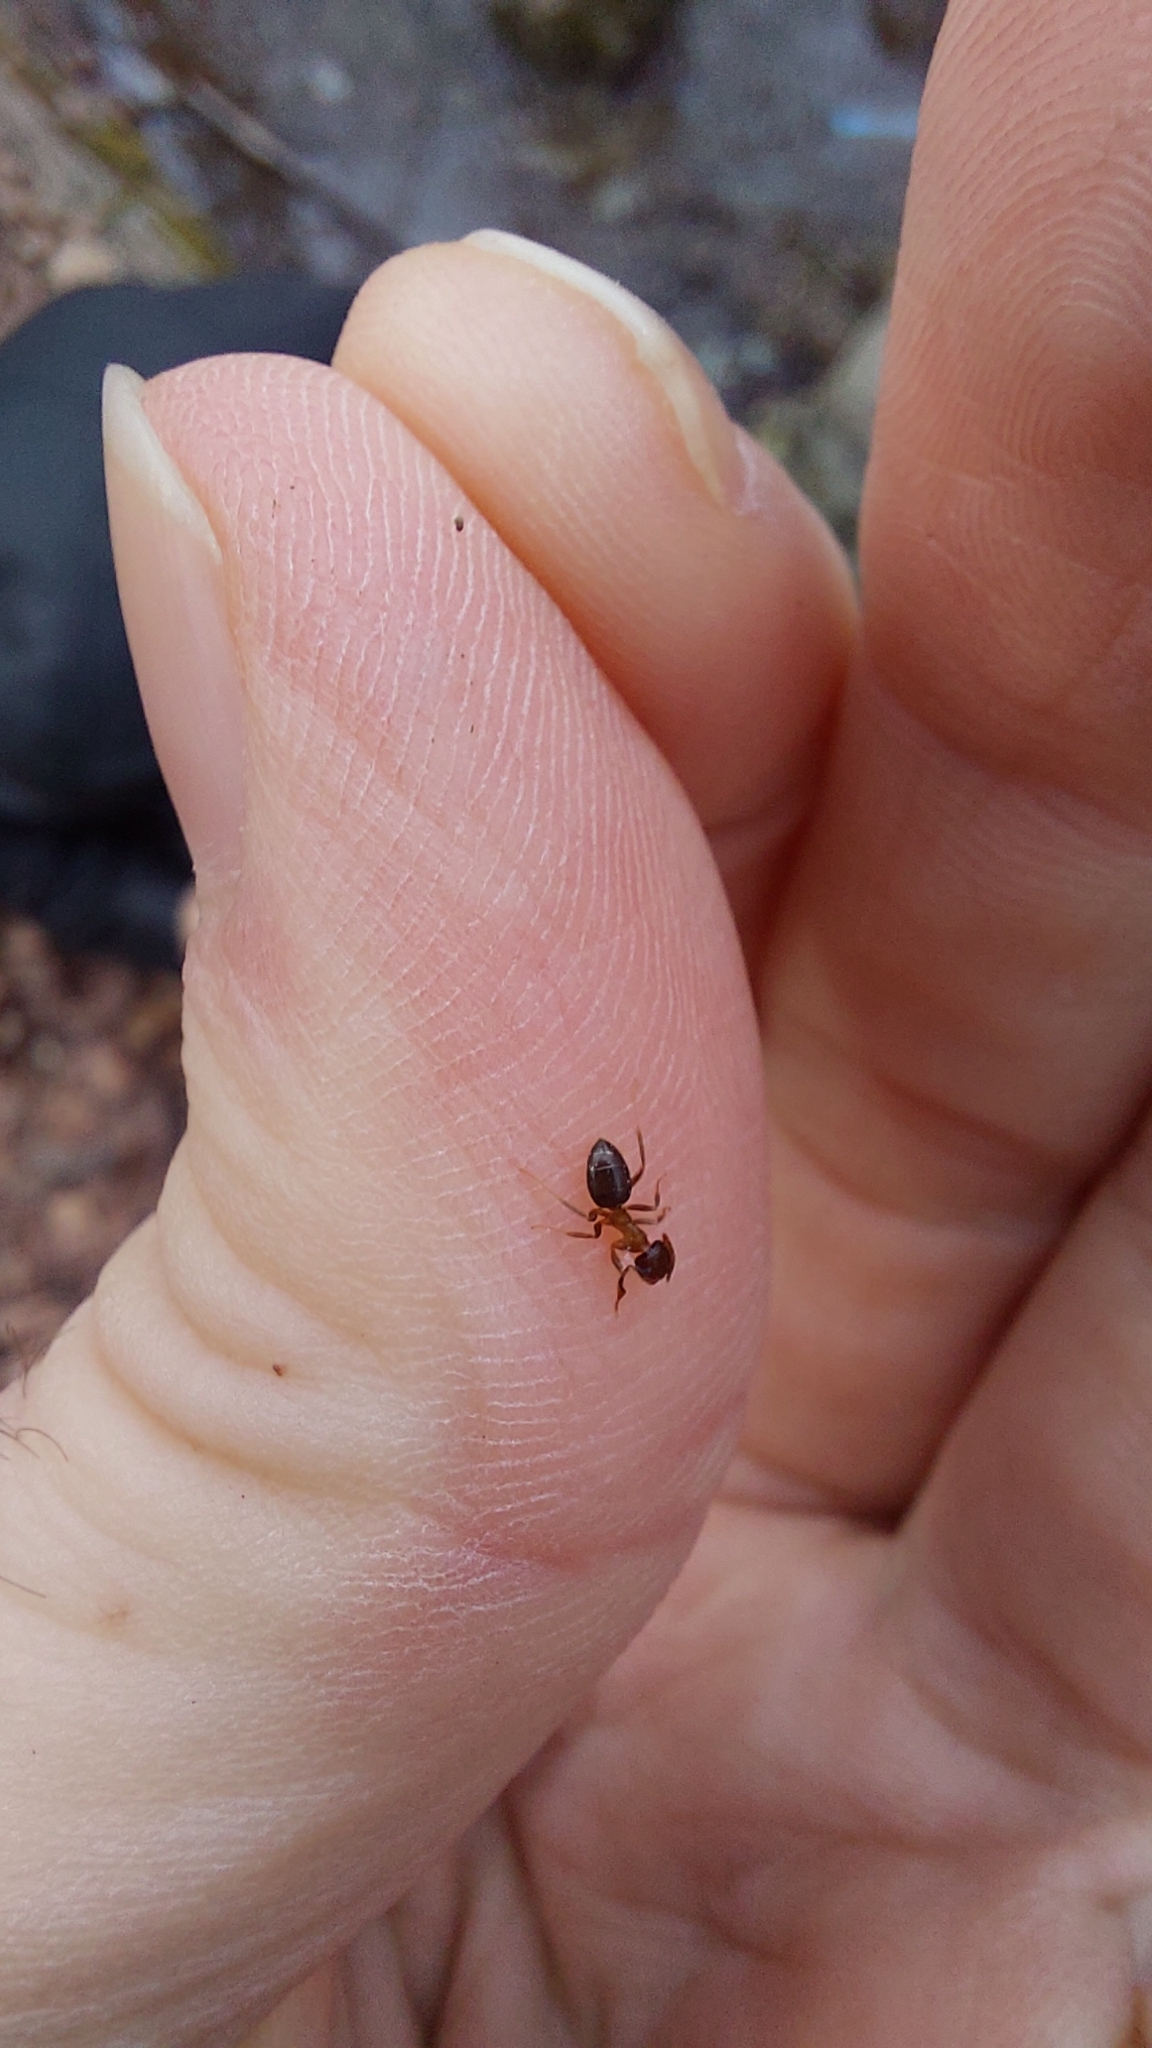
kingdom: Animalia
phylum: Arthropoda
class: Insecta
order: Hymenoptera
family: Formicidae
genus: Lasius
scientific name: Lasius brunneus
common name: Brown ant
